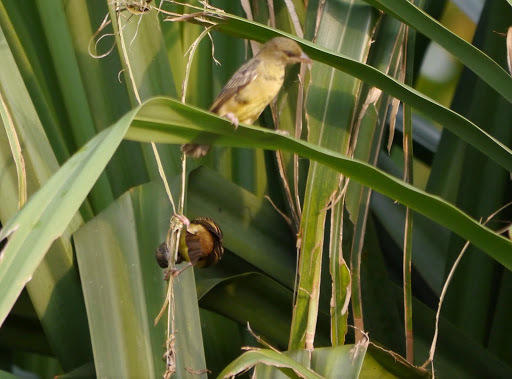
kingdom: Animalia
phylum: Chordata
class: Aves
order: Passeriformes
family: Ploceidae
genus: Ploceus
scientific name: Ploceus nigerrimus
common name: Vieillot's black weaver
